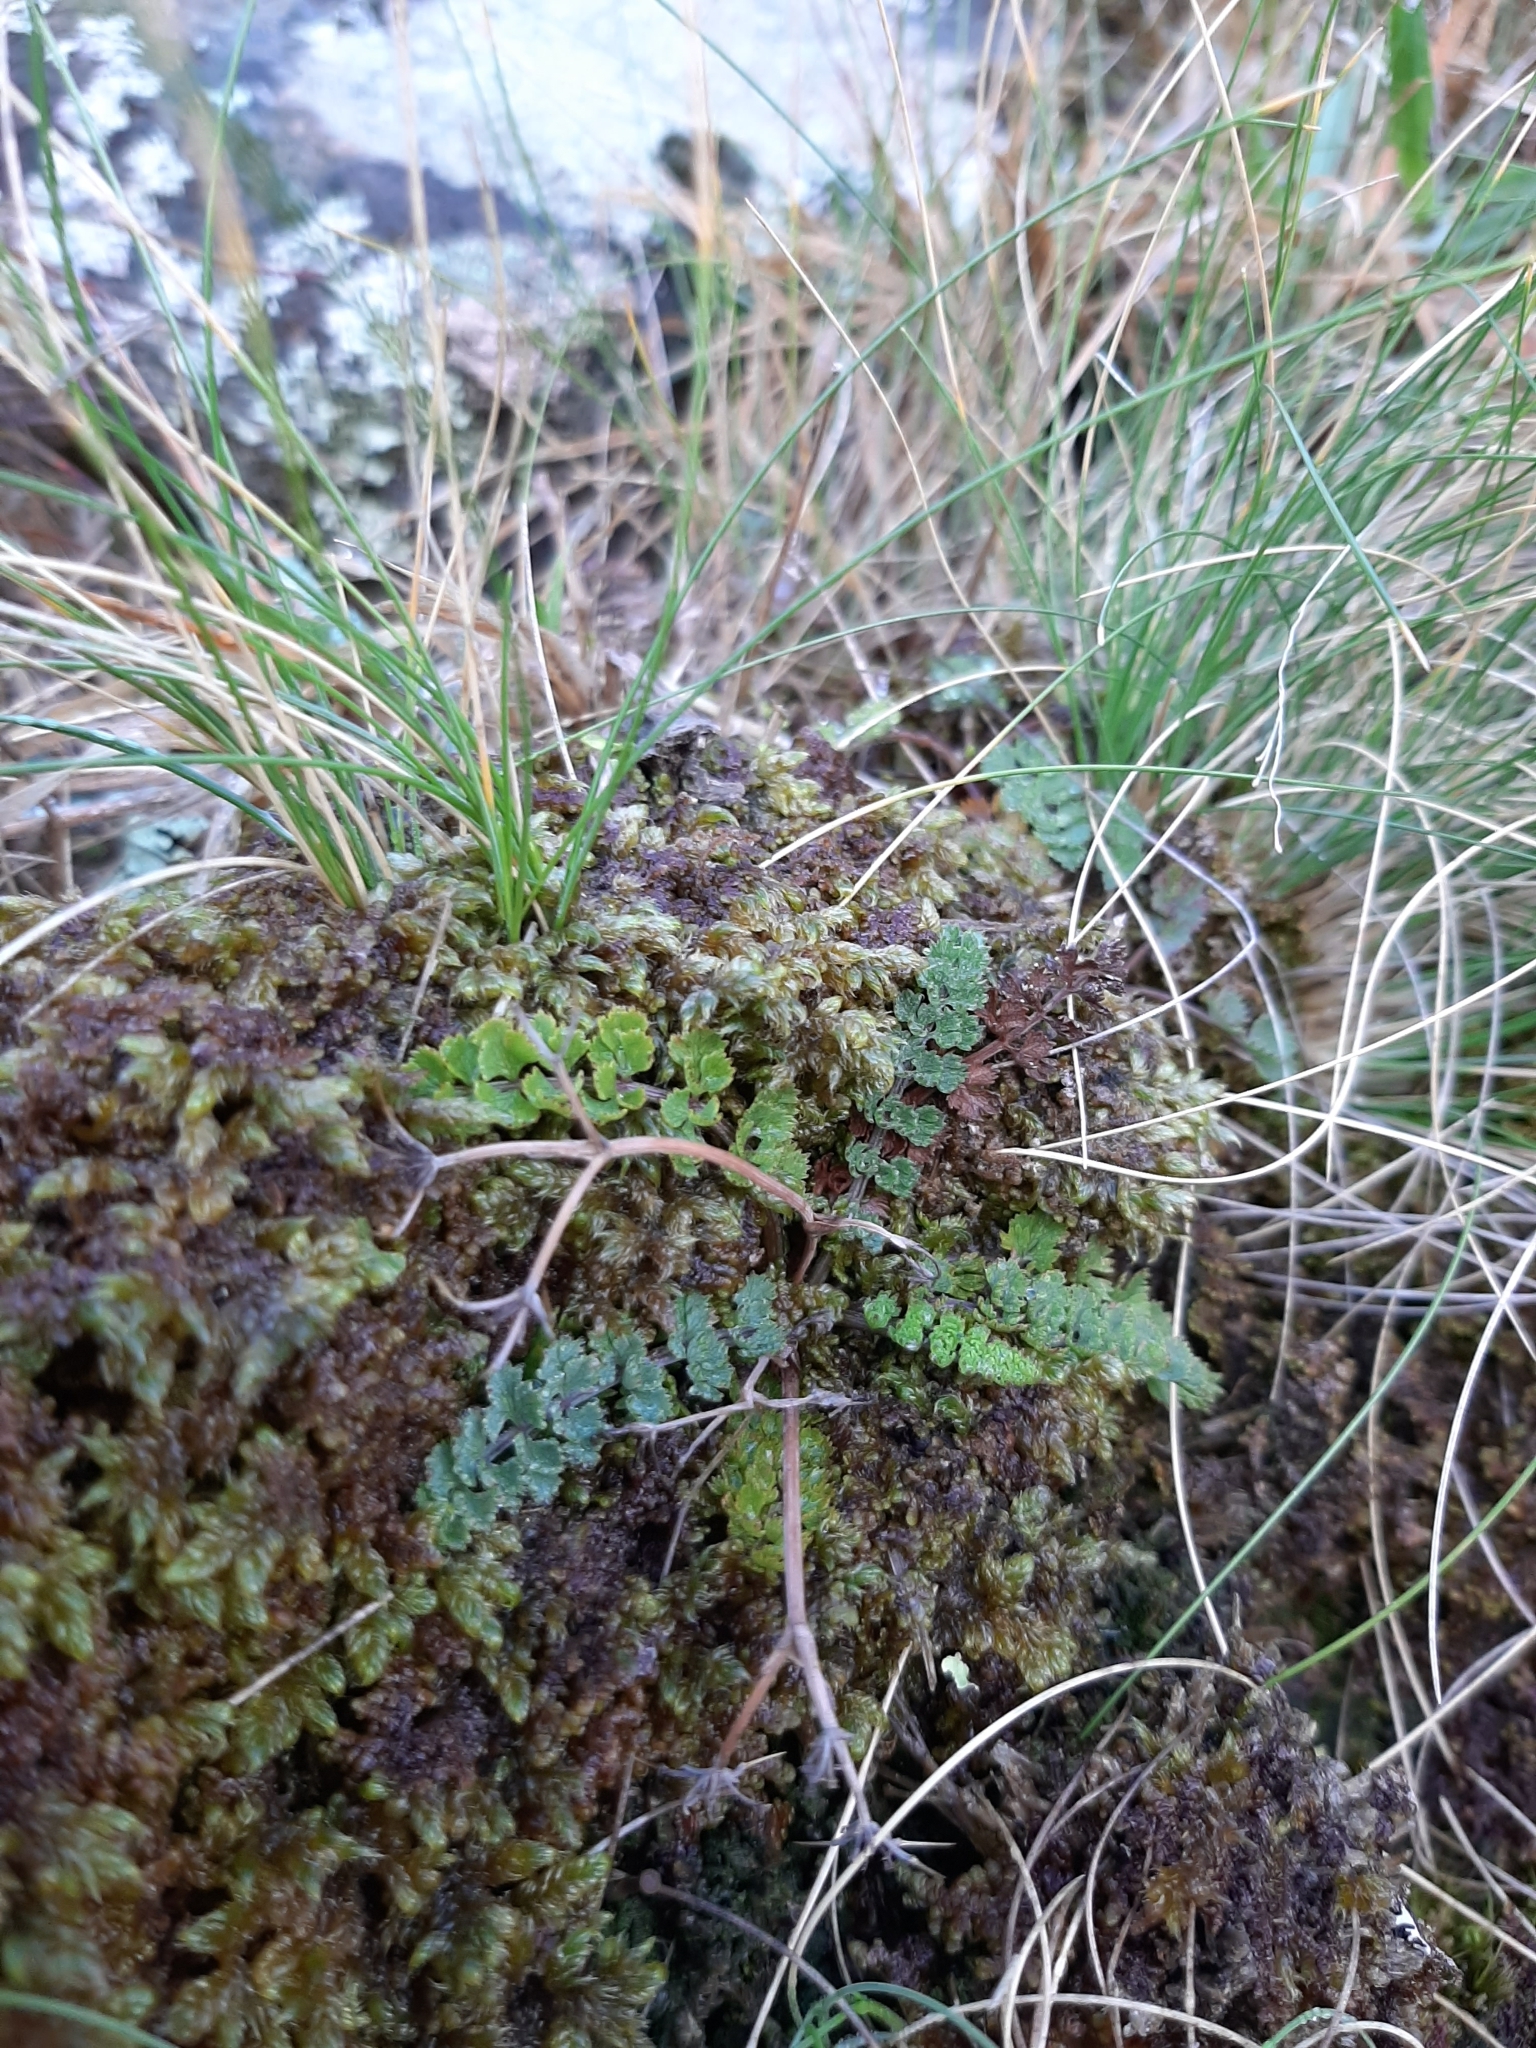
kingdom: Plantae
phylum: Tracheophyta
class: Magnoliopsida
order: Apiales
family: Apiaceae
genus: Gingidia
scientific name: Gingidia enysii
